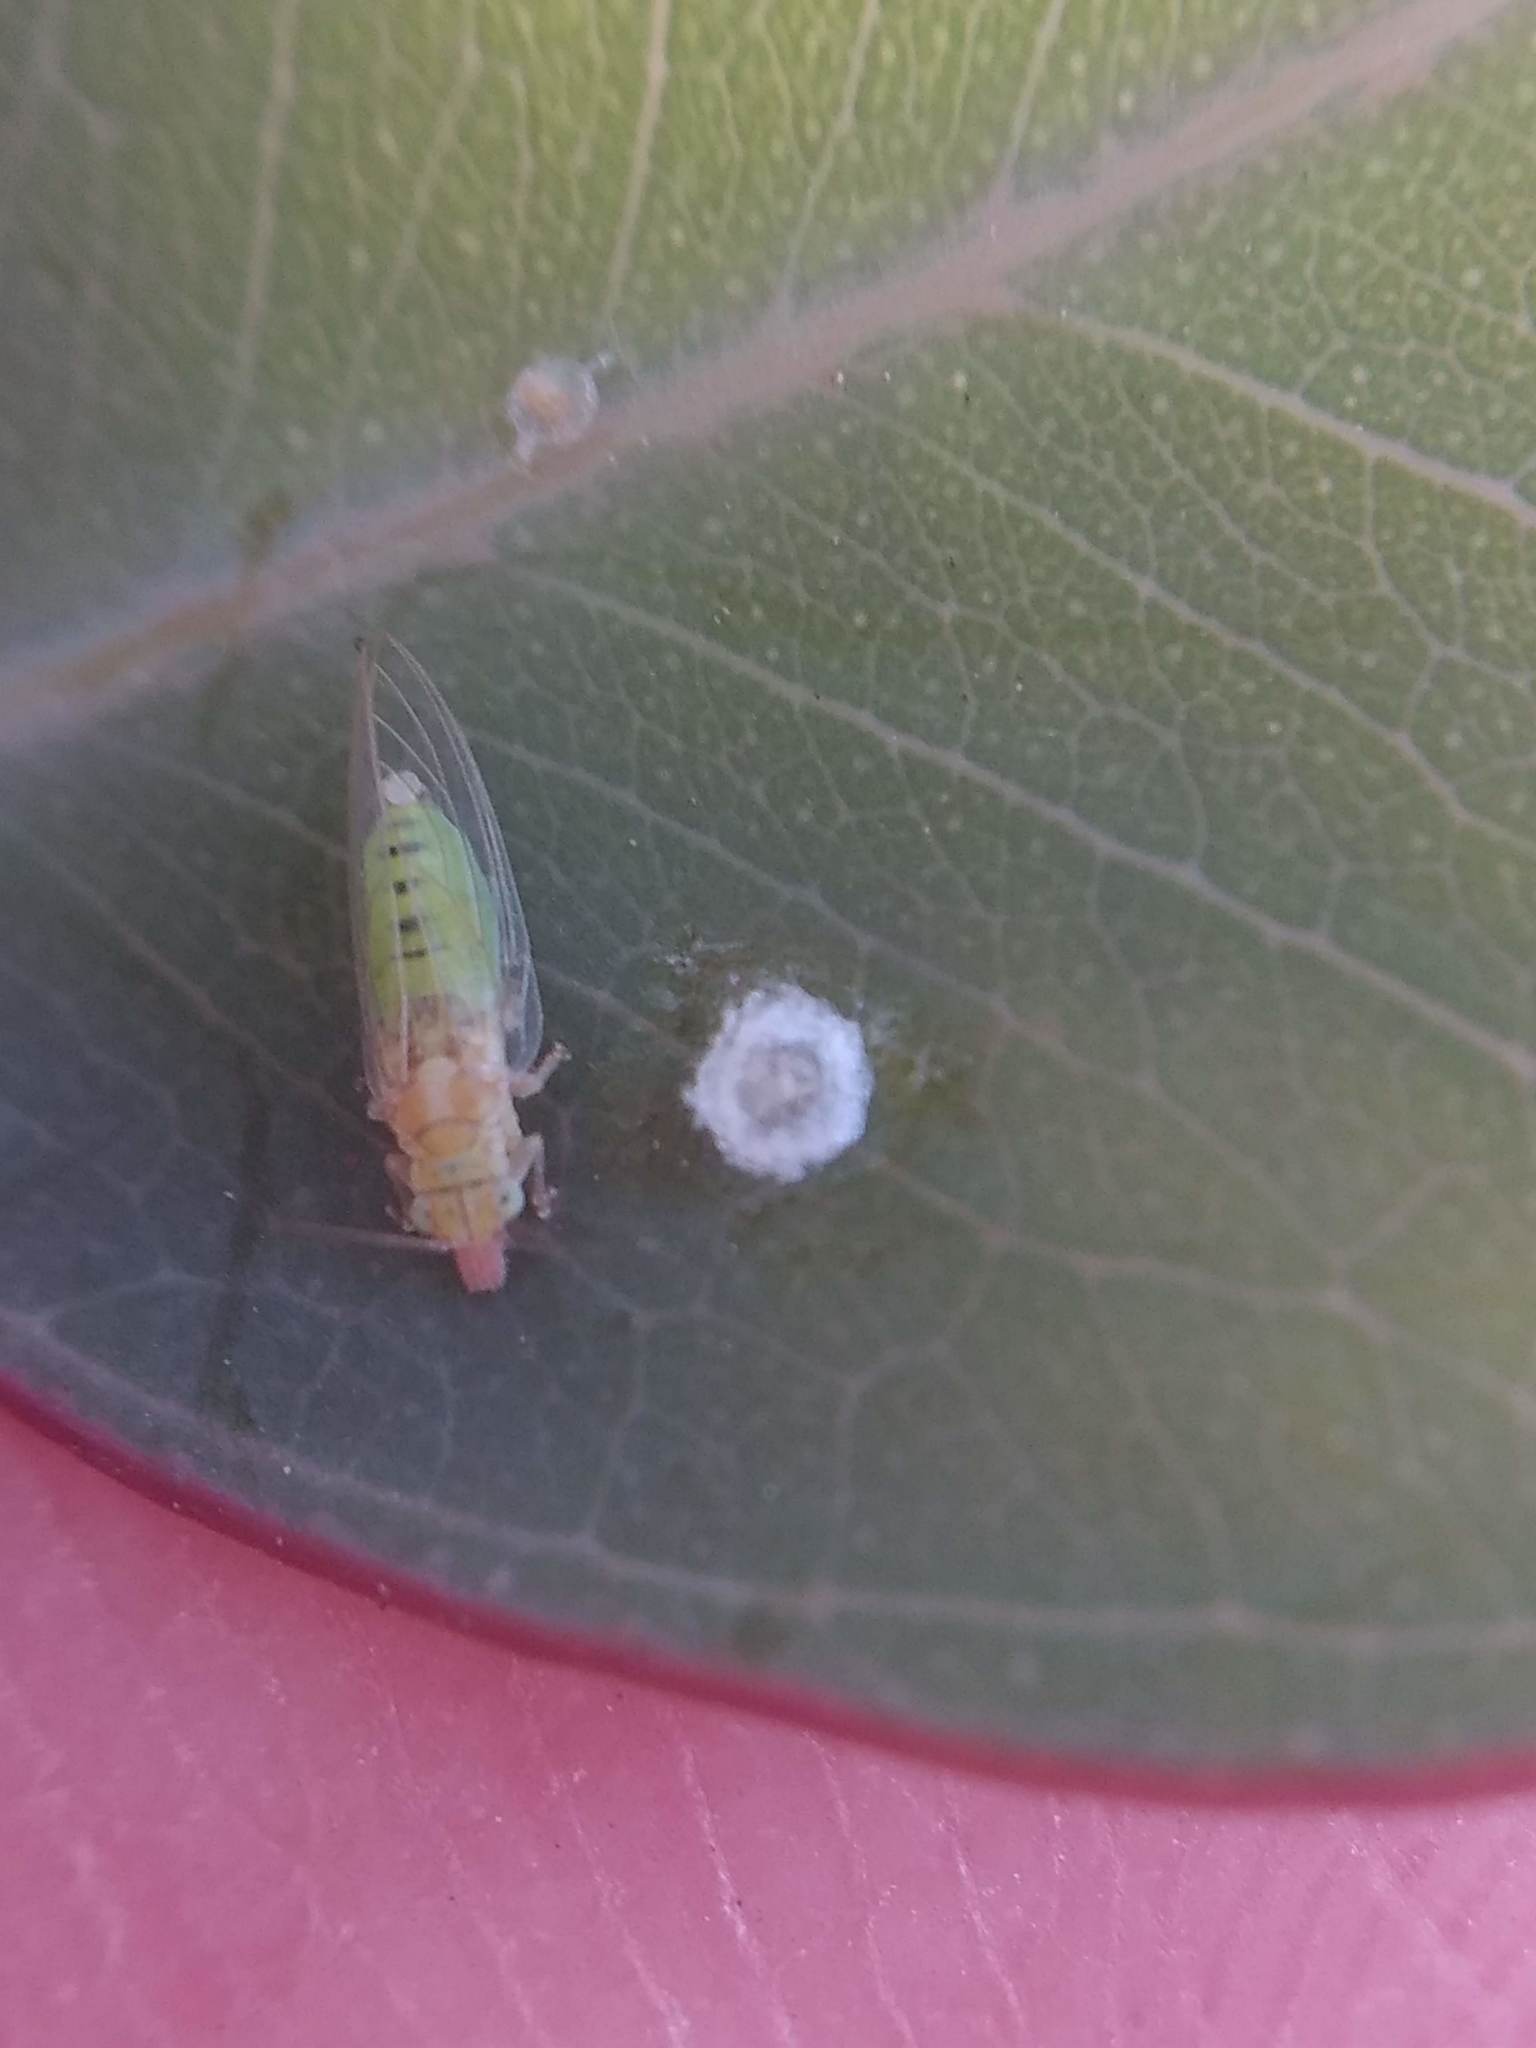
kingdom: Animalia
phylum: Arthropoda
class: Insecta
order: Hemiptera
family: Aphalaridae
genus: Glycaspis
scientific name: Glycaspis brimblecombei
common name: Red gum lerp psyllid
